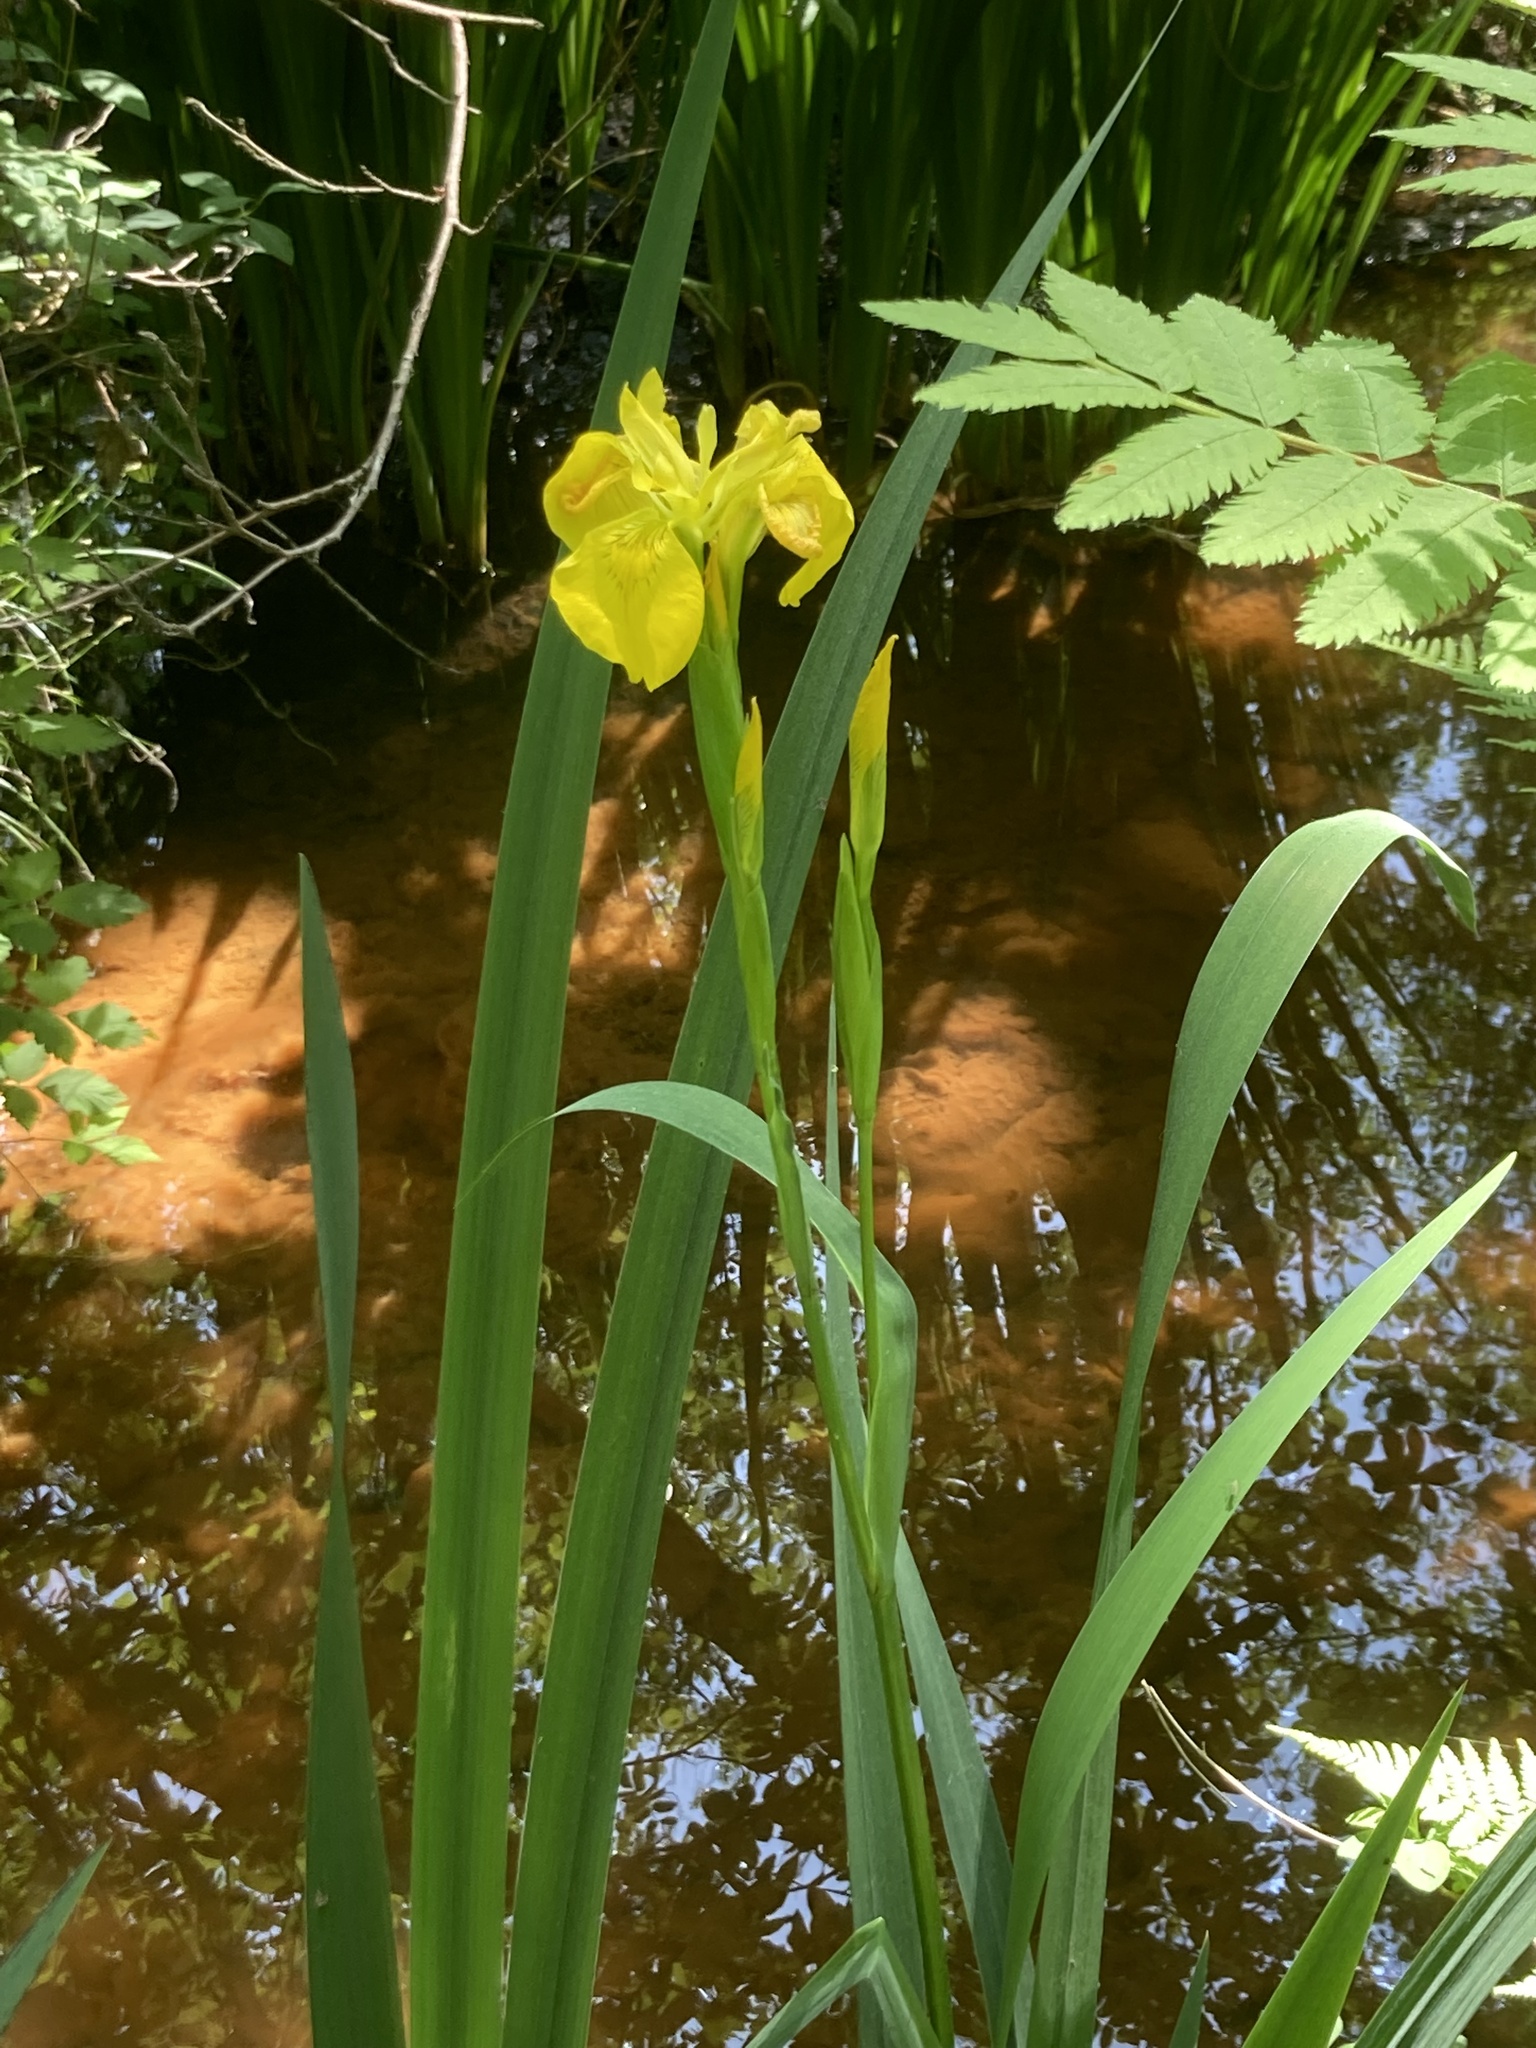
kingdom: Plantae
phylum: Tracheophyta
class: Liliopsida
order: Asparagales
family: Iridaceae
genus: Iris
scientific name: Iris pseudacorus
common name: Yellow flag
